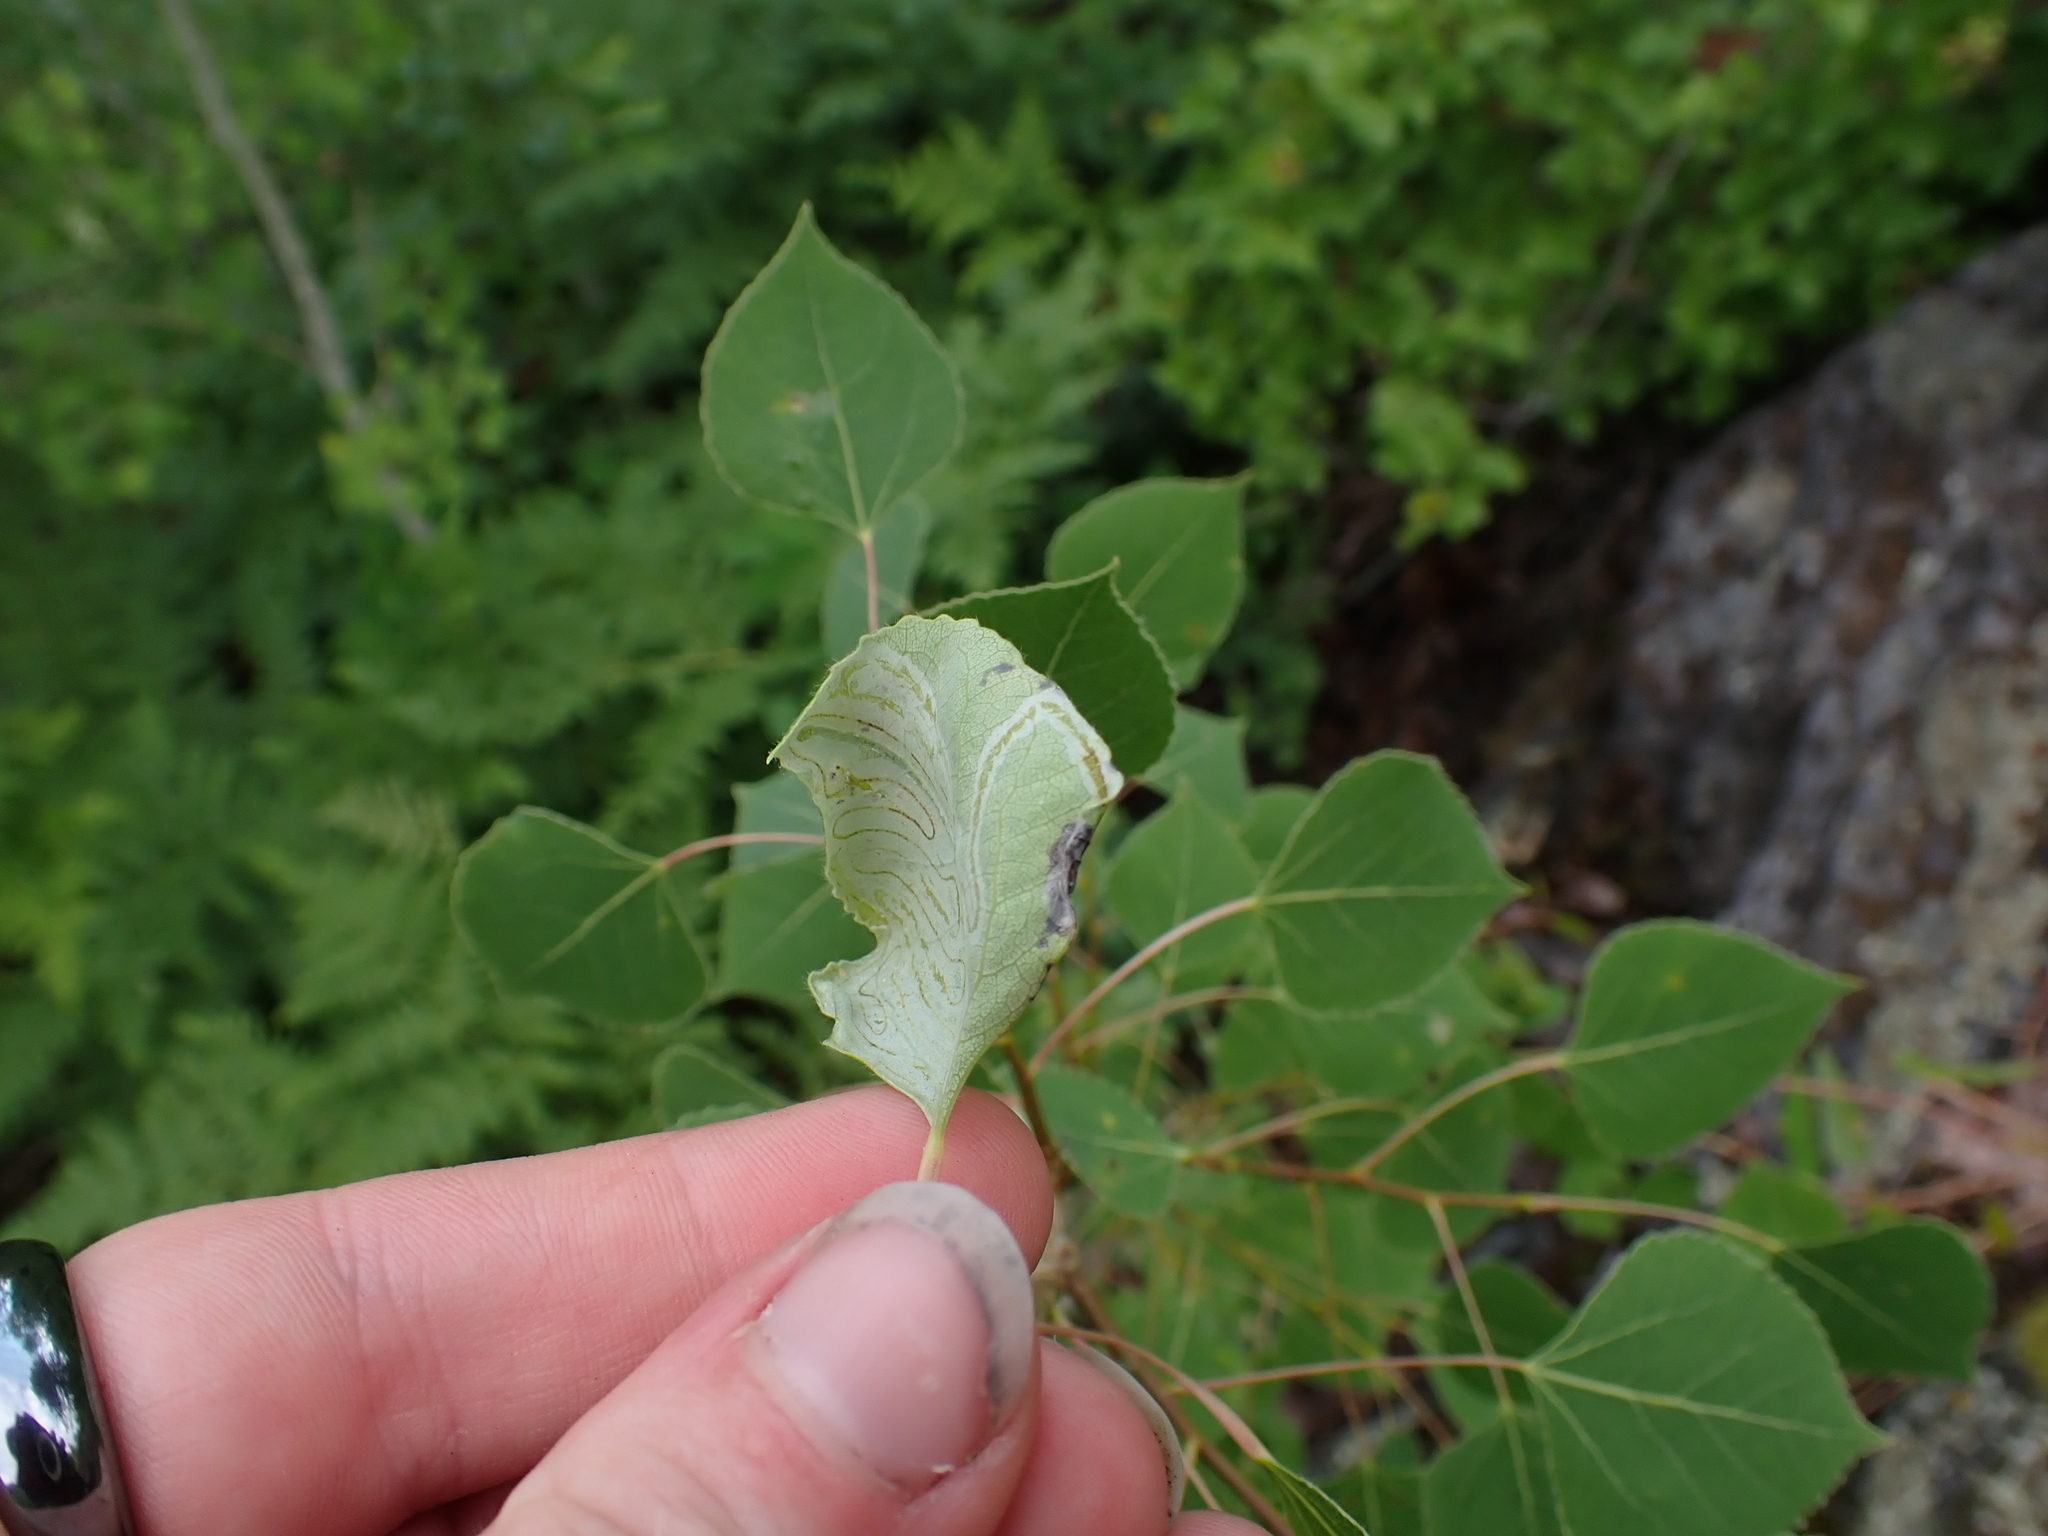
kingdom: Animalia
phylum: Arthropoda
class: Insecta
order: Lepidoptera
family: Gracillariidae
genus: Phyllocnistis
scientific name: Phyllocnistis populiella
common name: Aspen serpentine leafminer moth
